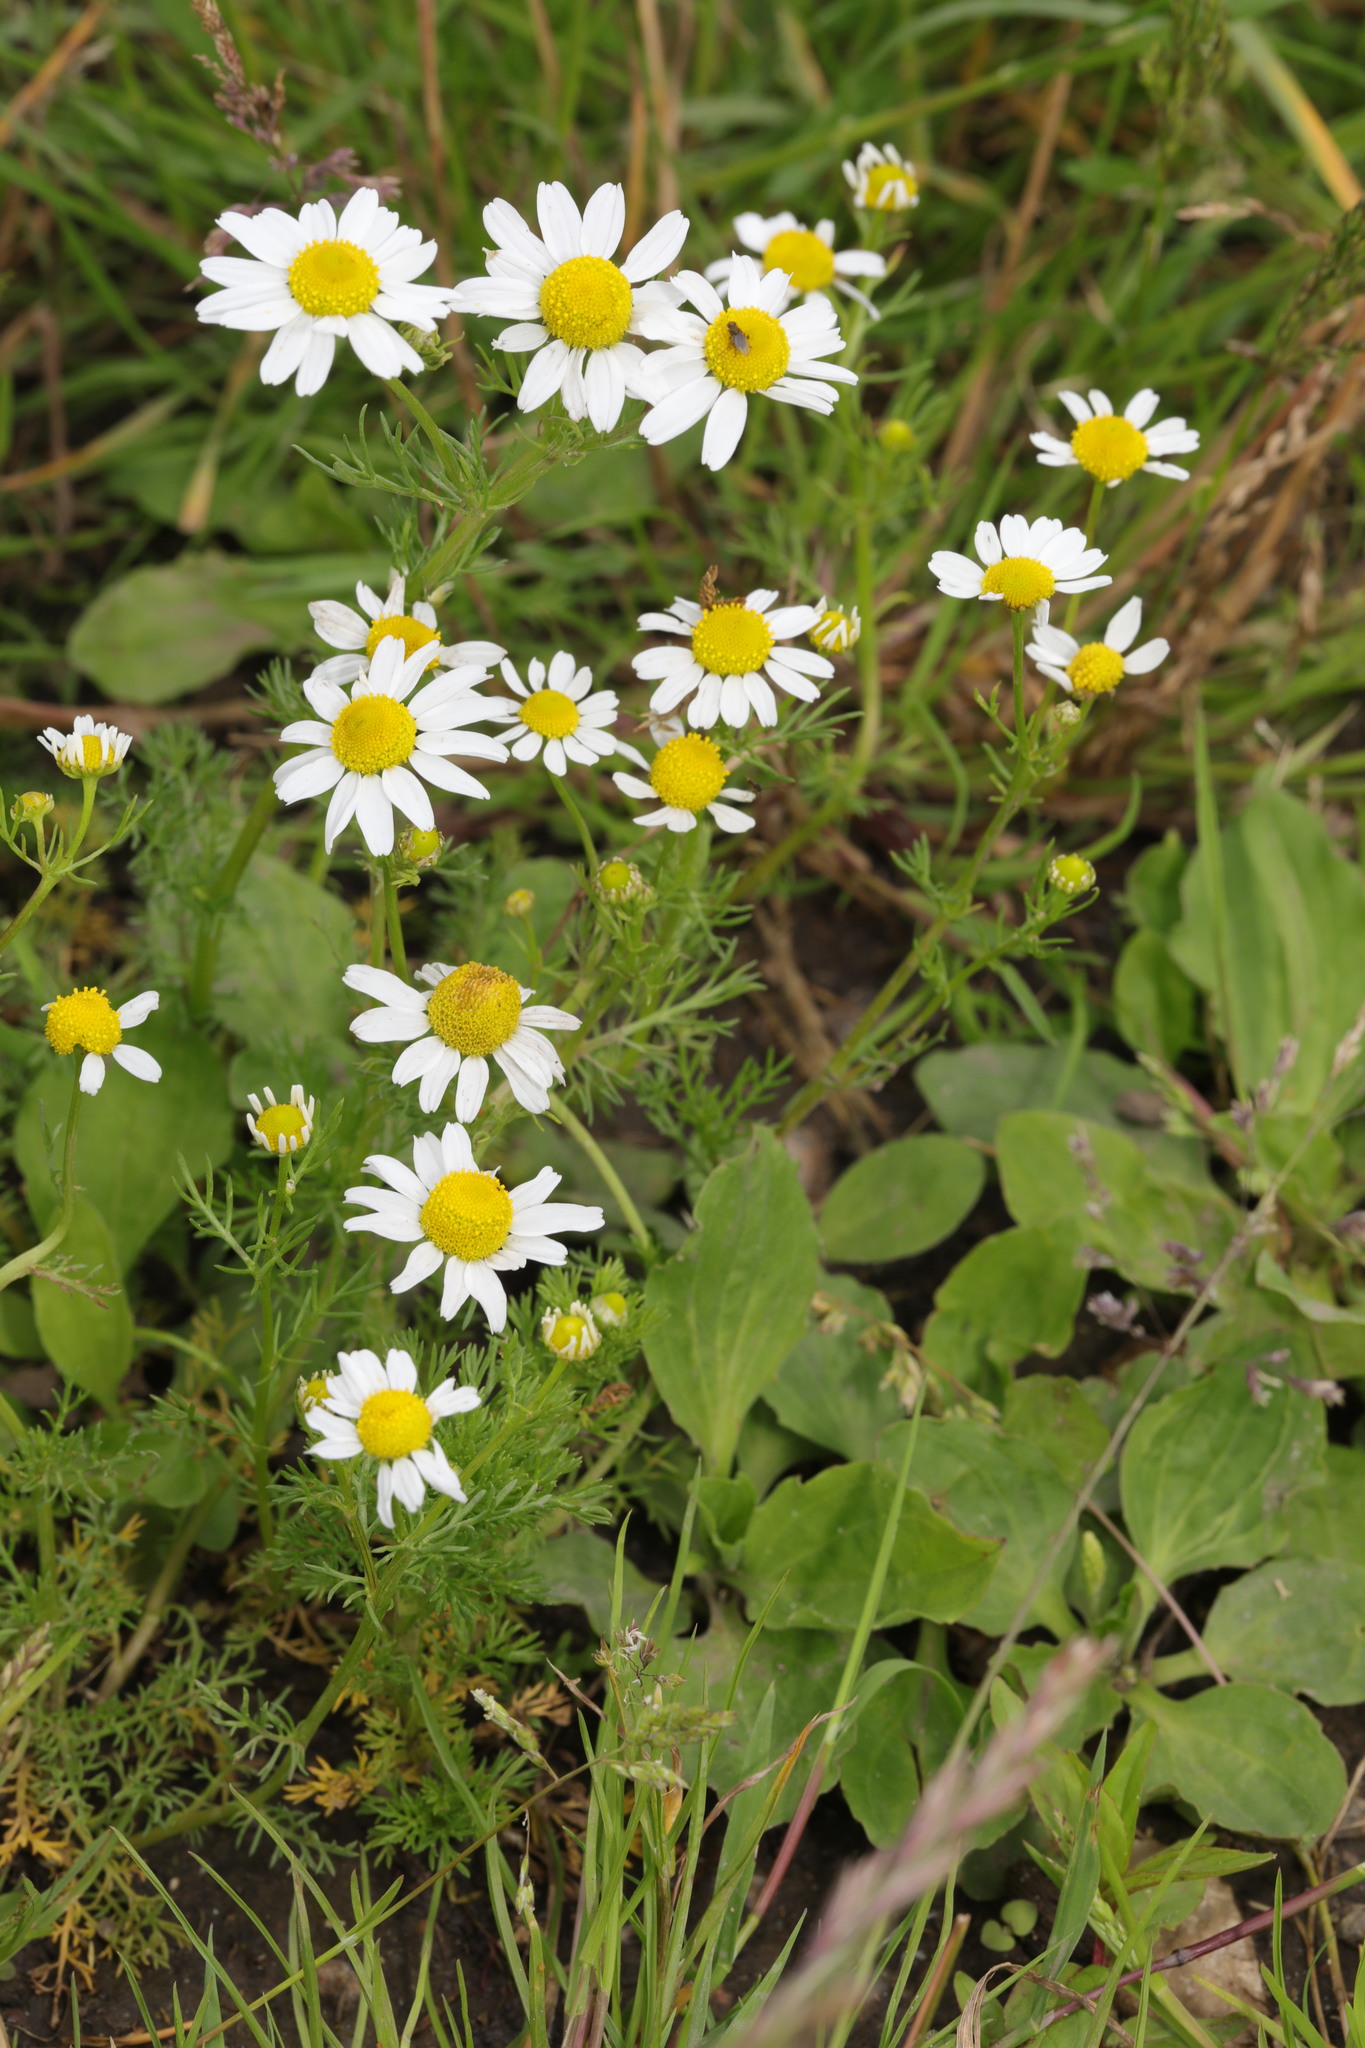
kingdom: Plantae
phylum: Tracheophyta
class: Magnoliopsida
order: Asterales
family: Asteraceae
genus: Matricaria
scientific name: Matricaria chamomilla
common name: Scented mayweed
